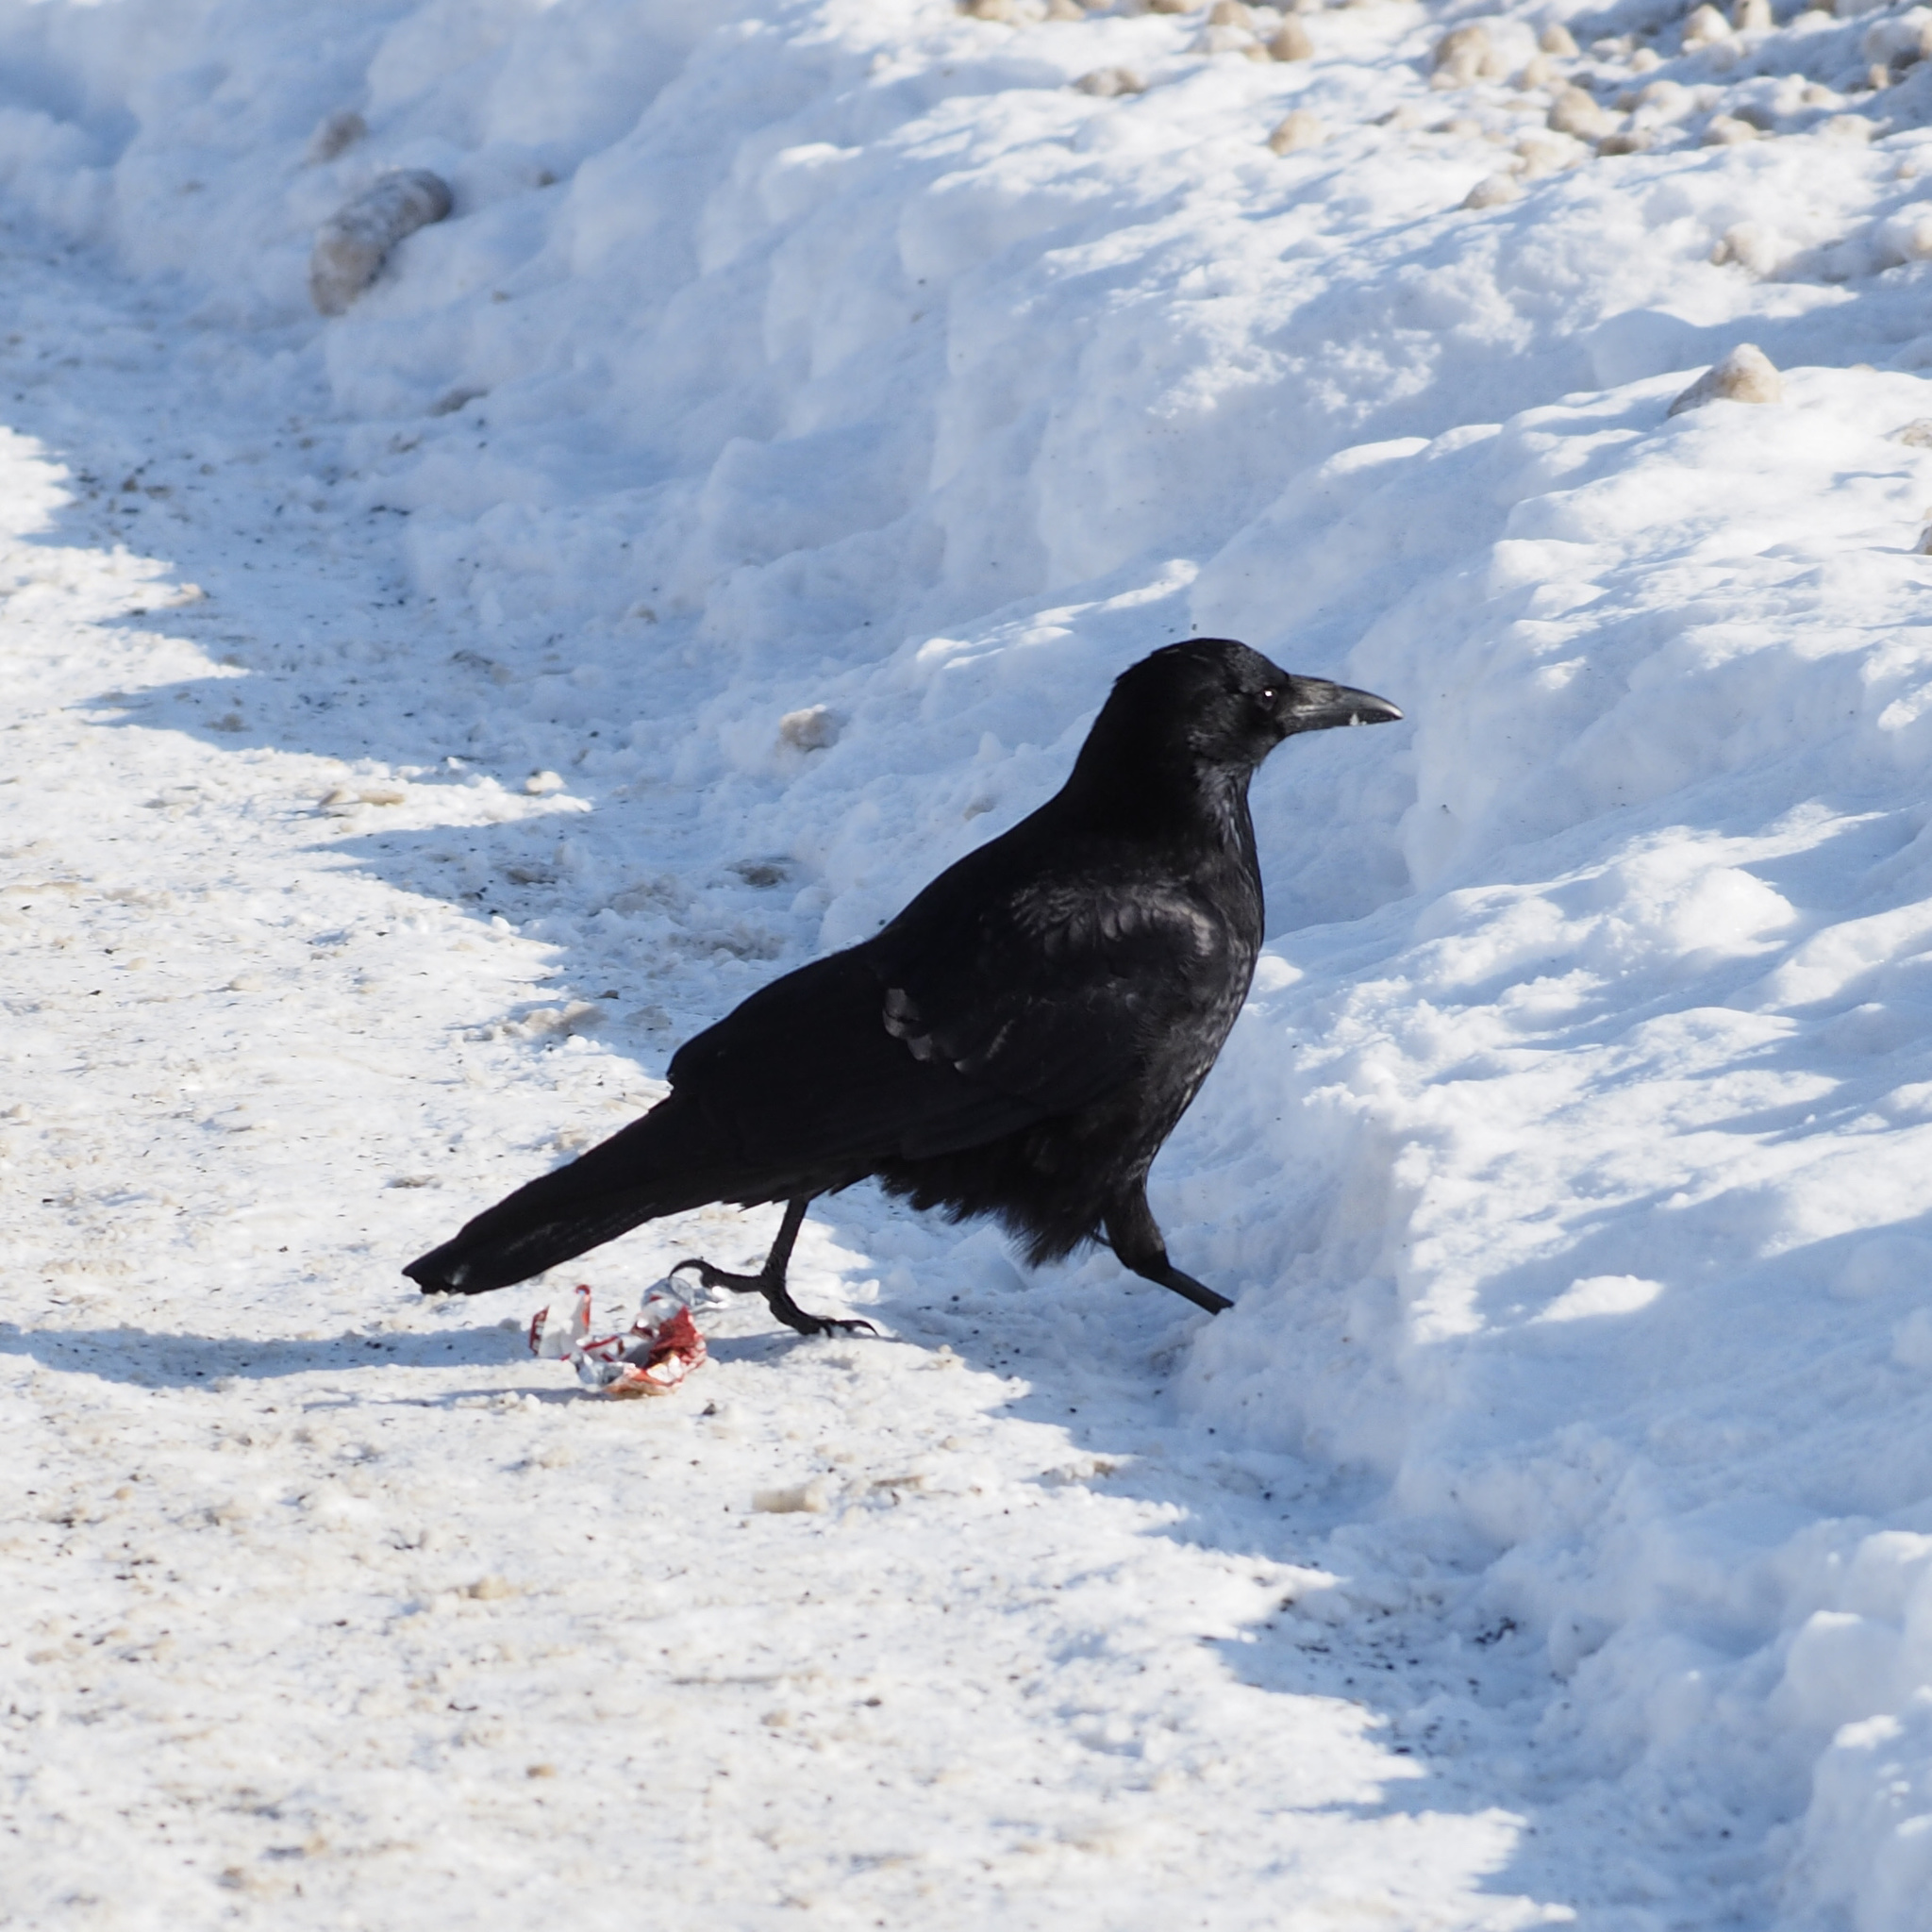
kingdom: Animalia
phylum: Chordata
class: Aves
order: Passeriformes
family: Corvidae
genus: Corvus
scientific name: Corvus corone
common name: Carrion crow
